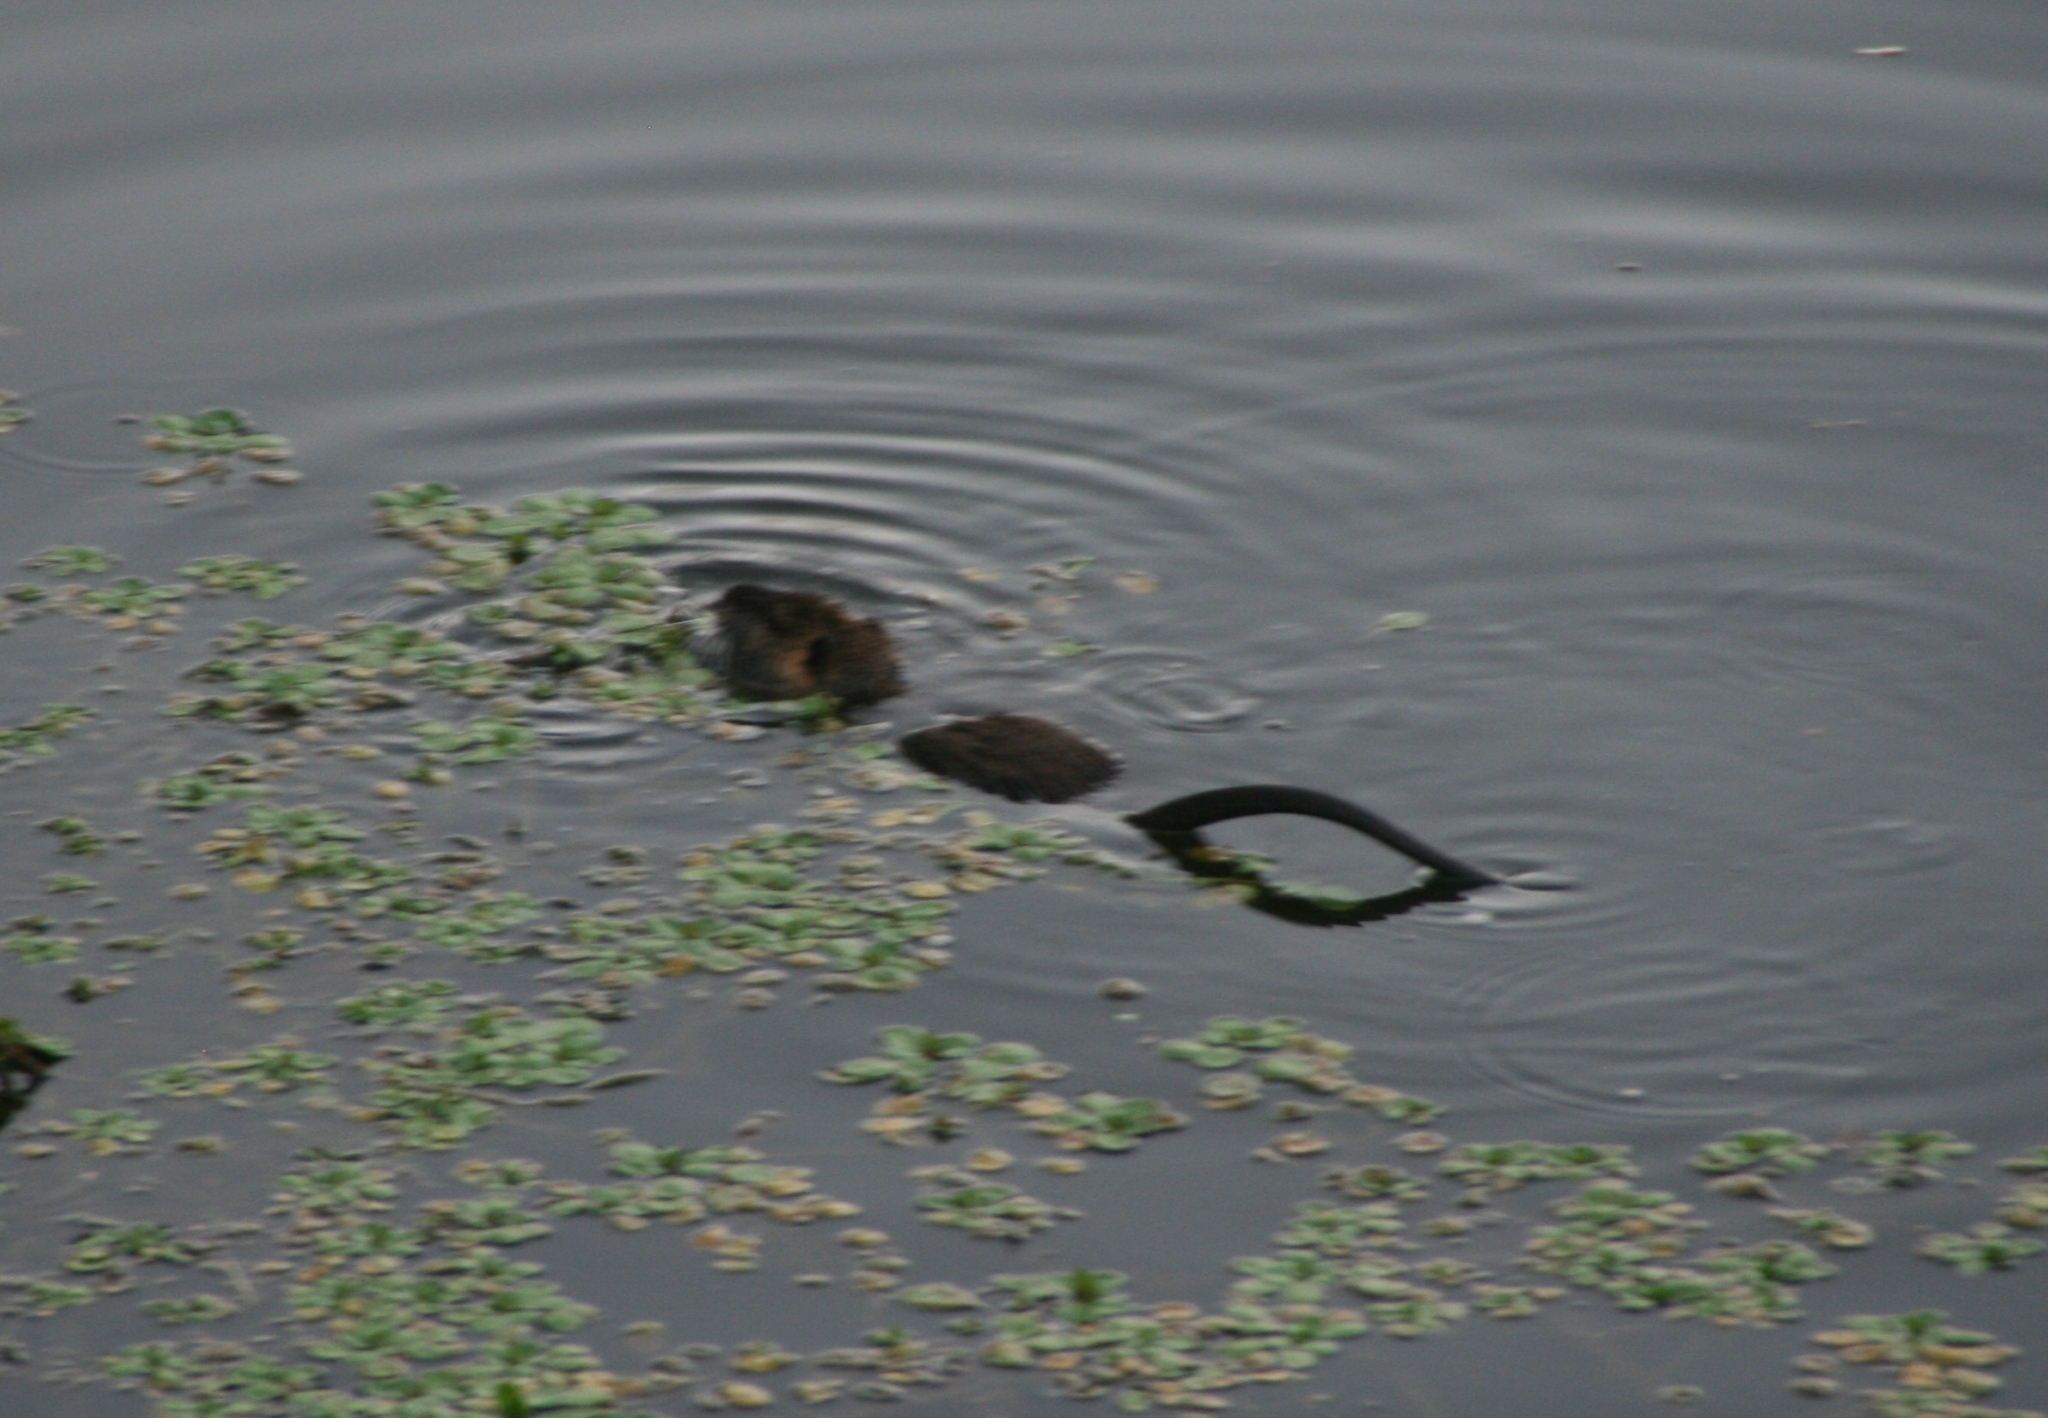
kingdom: Animalia
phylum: Chordata
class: Mammalia
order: Rodentia
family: Myocastoridae
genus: Myocastor
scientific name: Myocastor coypus
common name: Coypu
